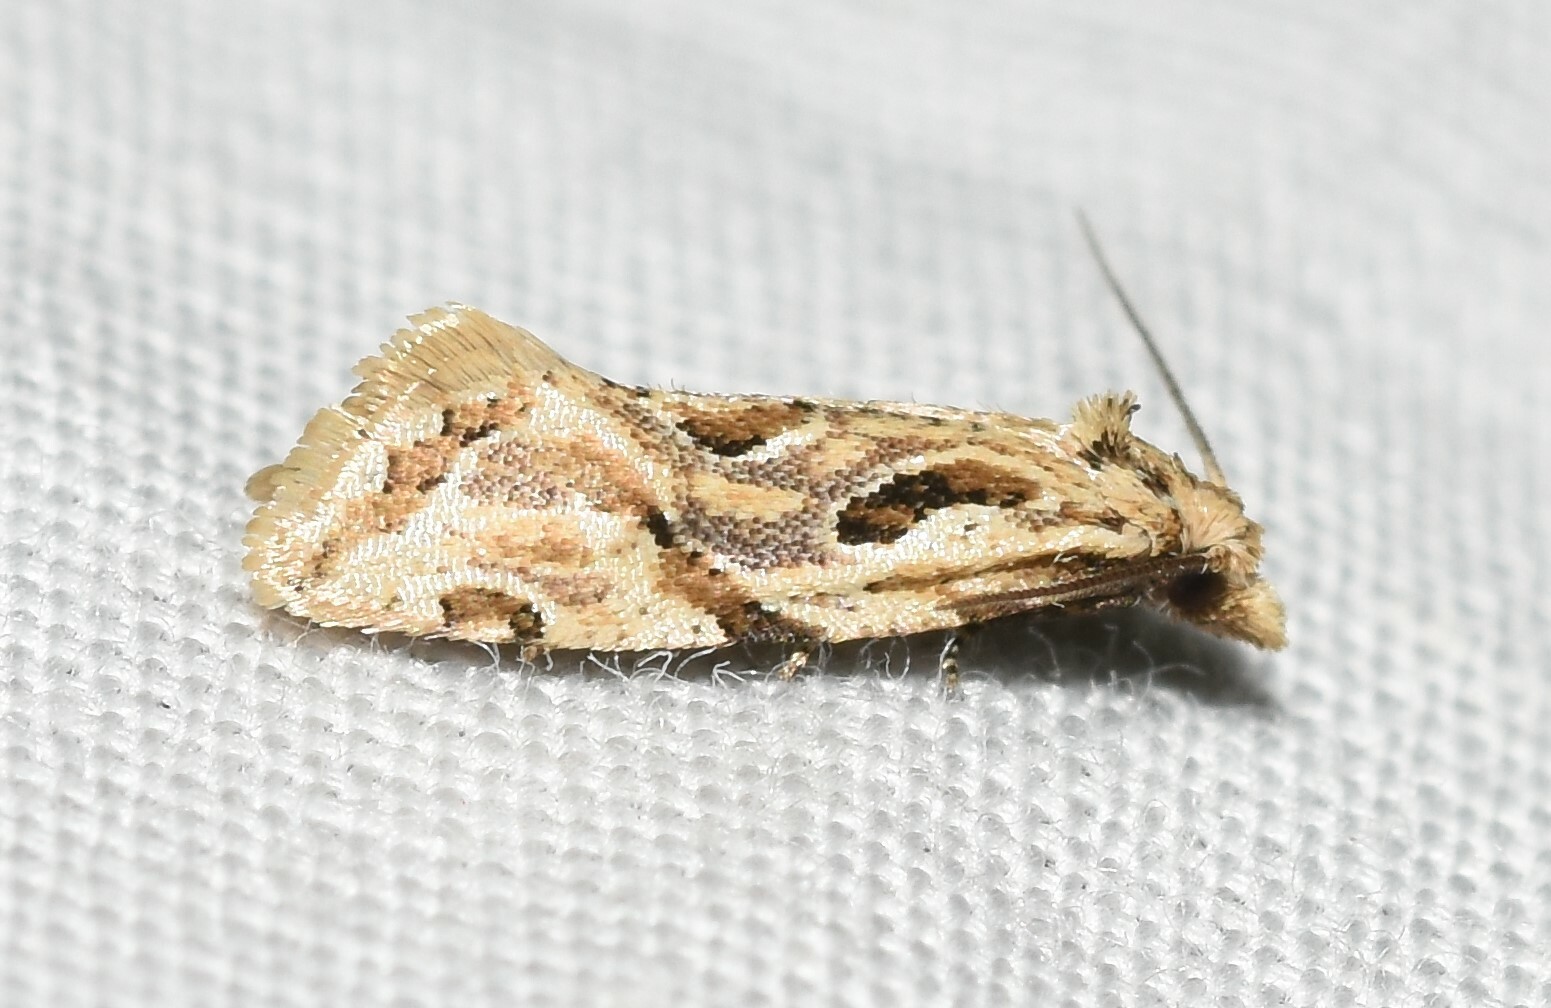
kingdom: Animalia
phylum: Arthropoda
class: Insecta
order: Lepidoptera
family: Tortricidae
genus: Aethes
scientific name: Aethes heleniana
